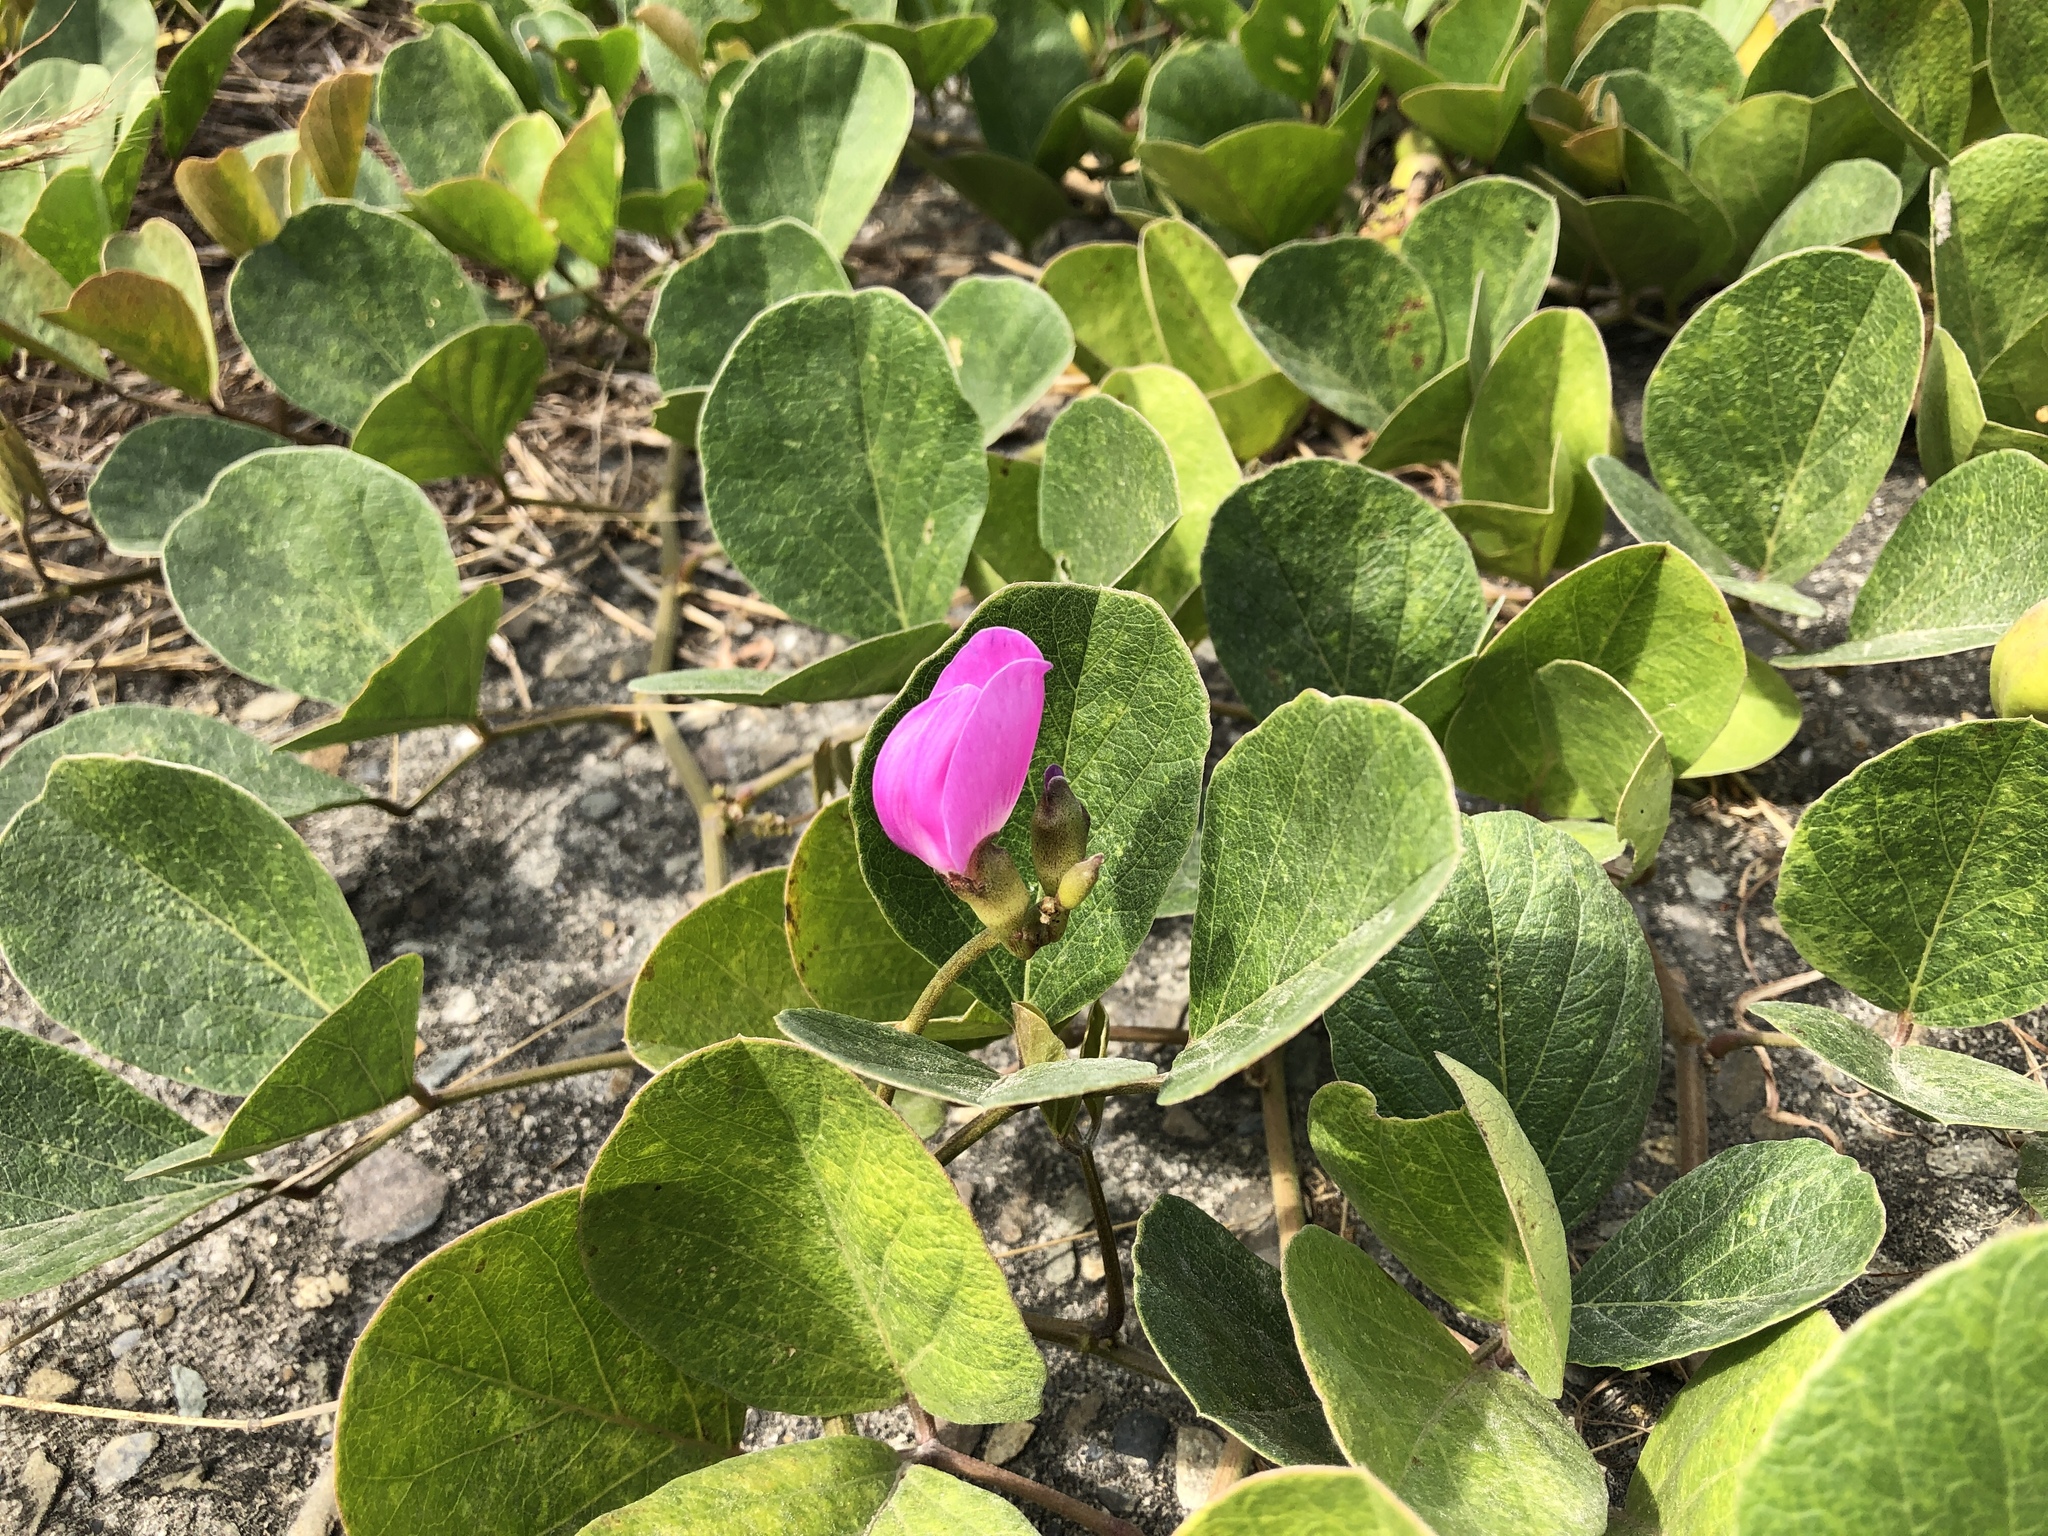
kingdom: Plantae
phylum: Tracheophyta
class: Magnoliopsida
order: Fabales
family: Fabaceae
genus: Canavalia
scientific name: Canavalia rosea
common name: Beach-bean
